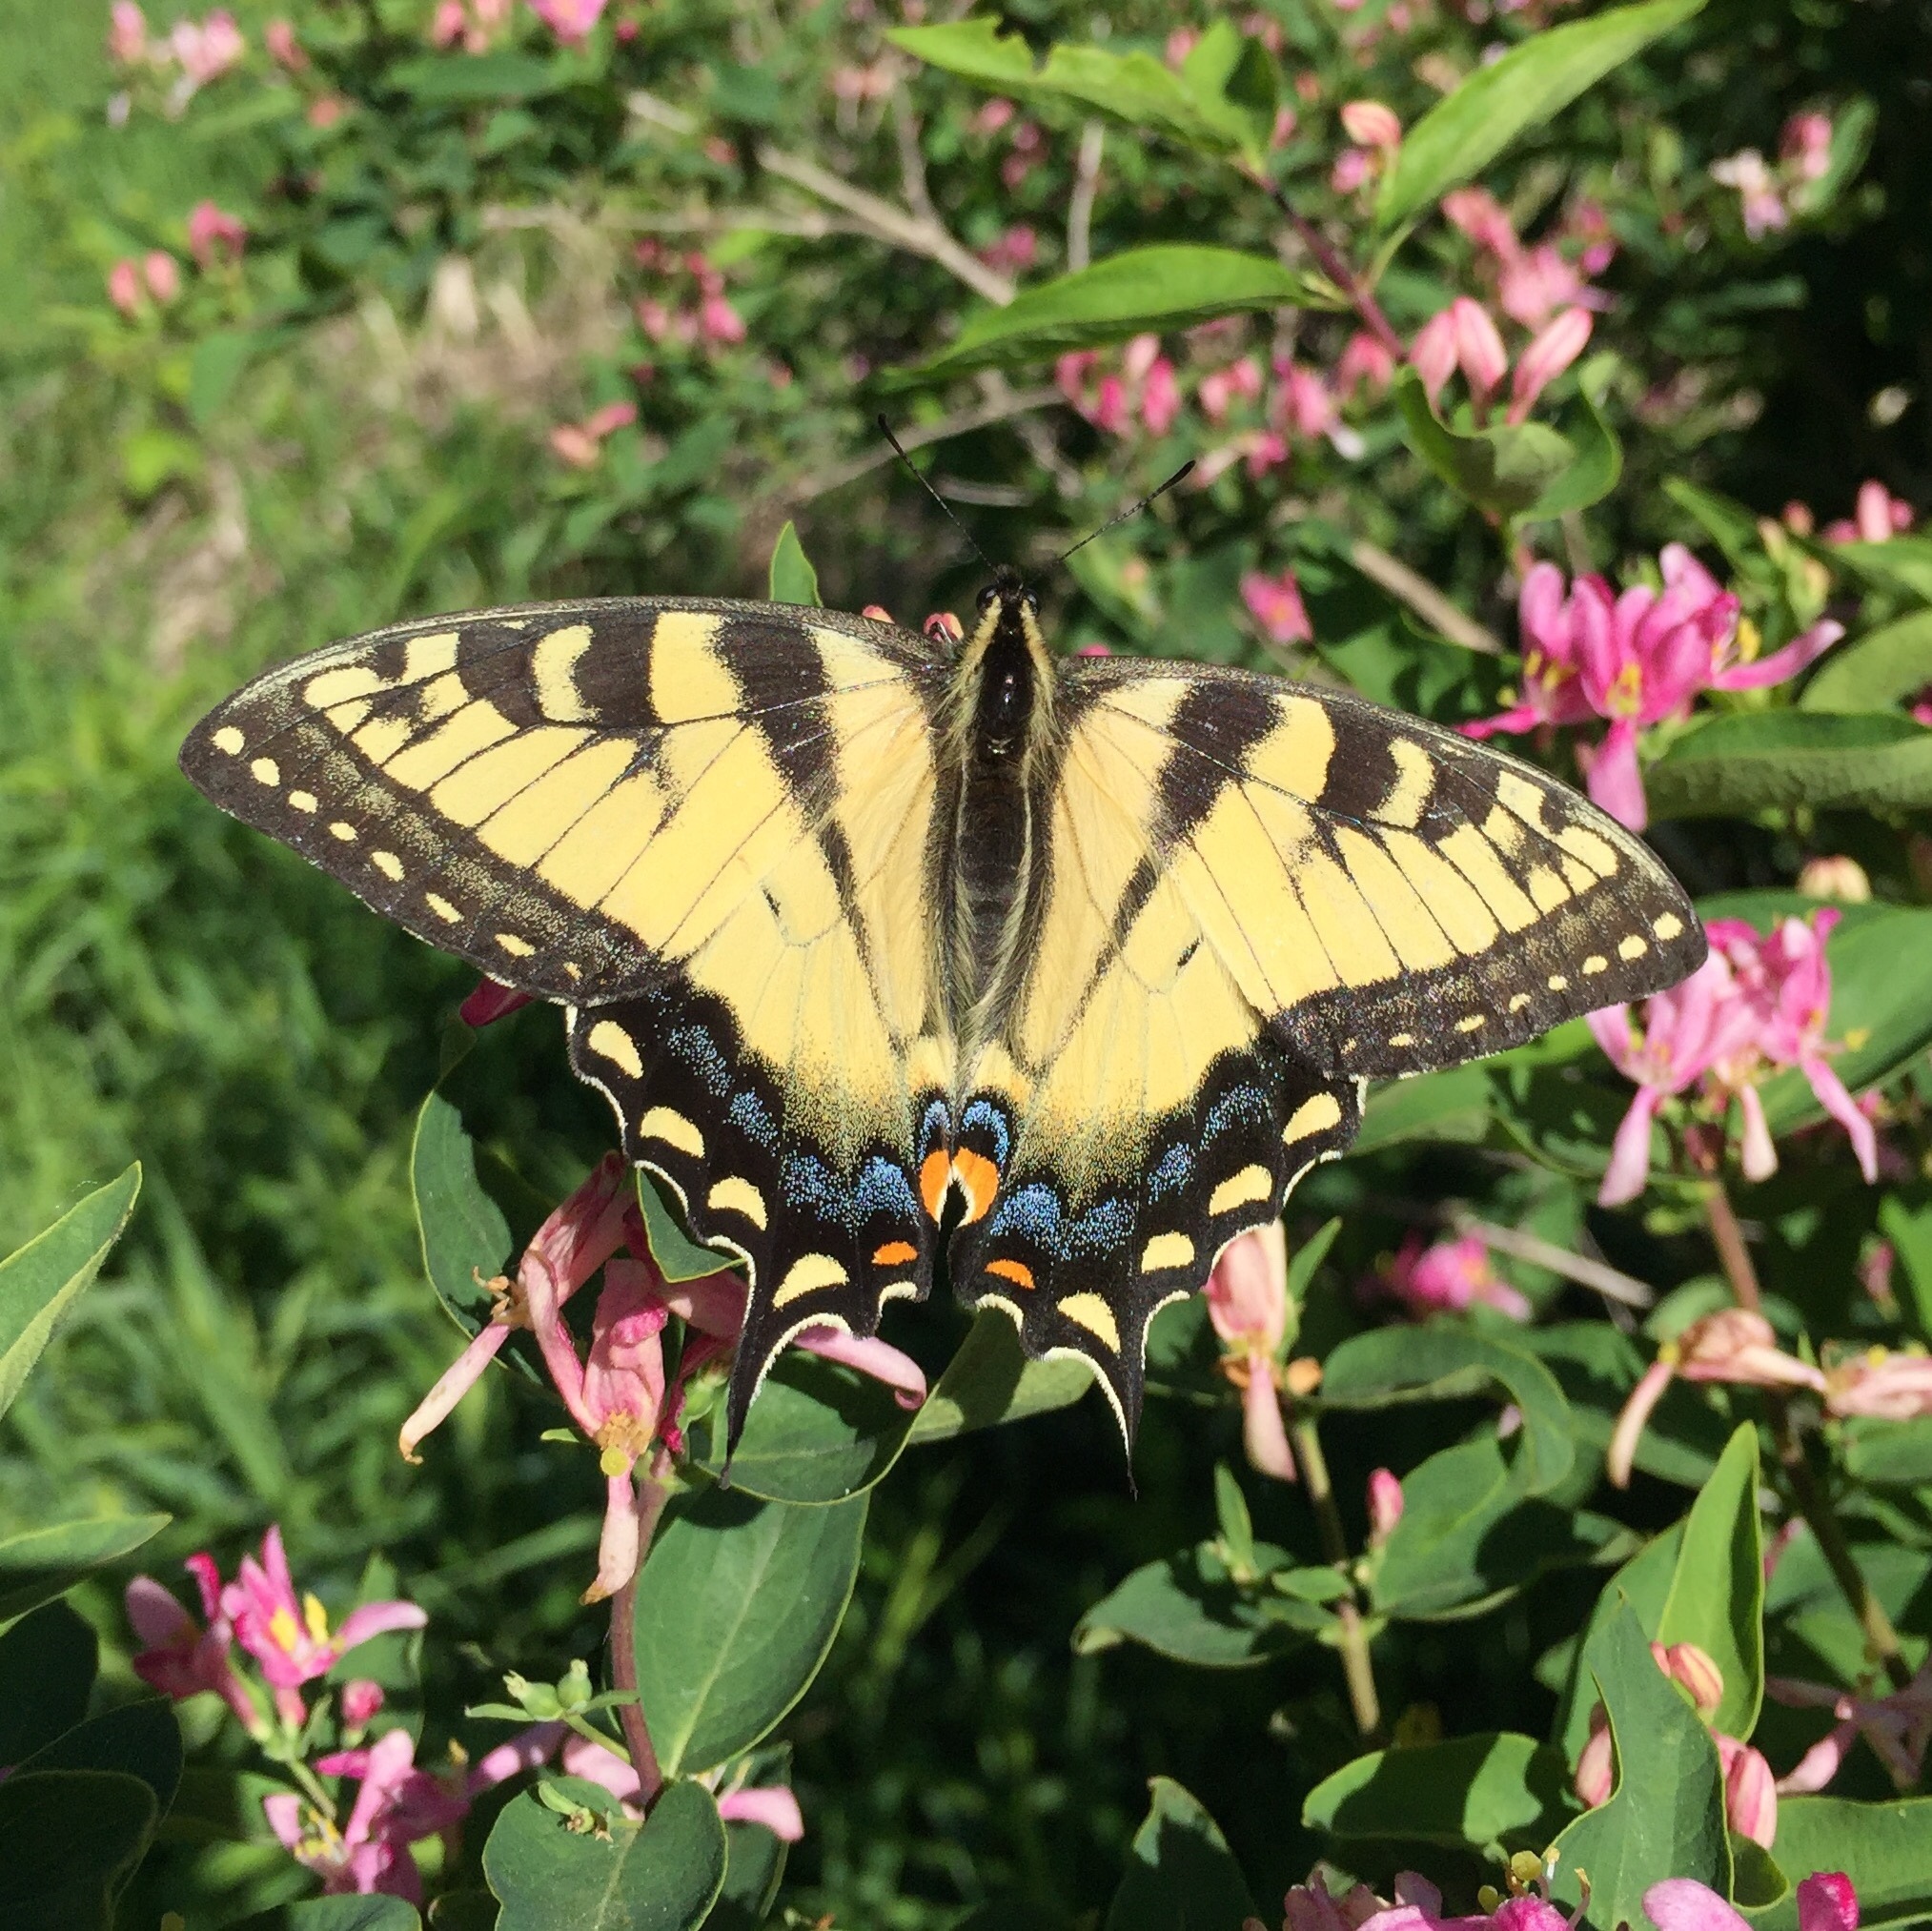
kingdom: Animalia
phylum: Arthropoda
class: Insecta
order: Lepidoptera
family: Papilionidae
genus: Papilio
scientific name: Papilio glaucus
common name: Tiger swallowtail
